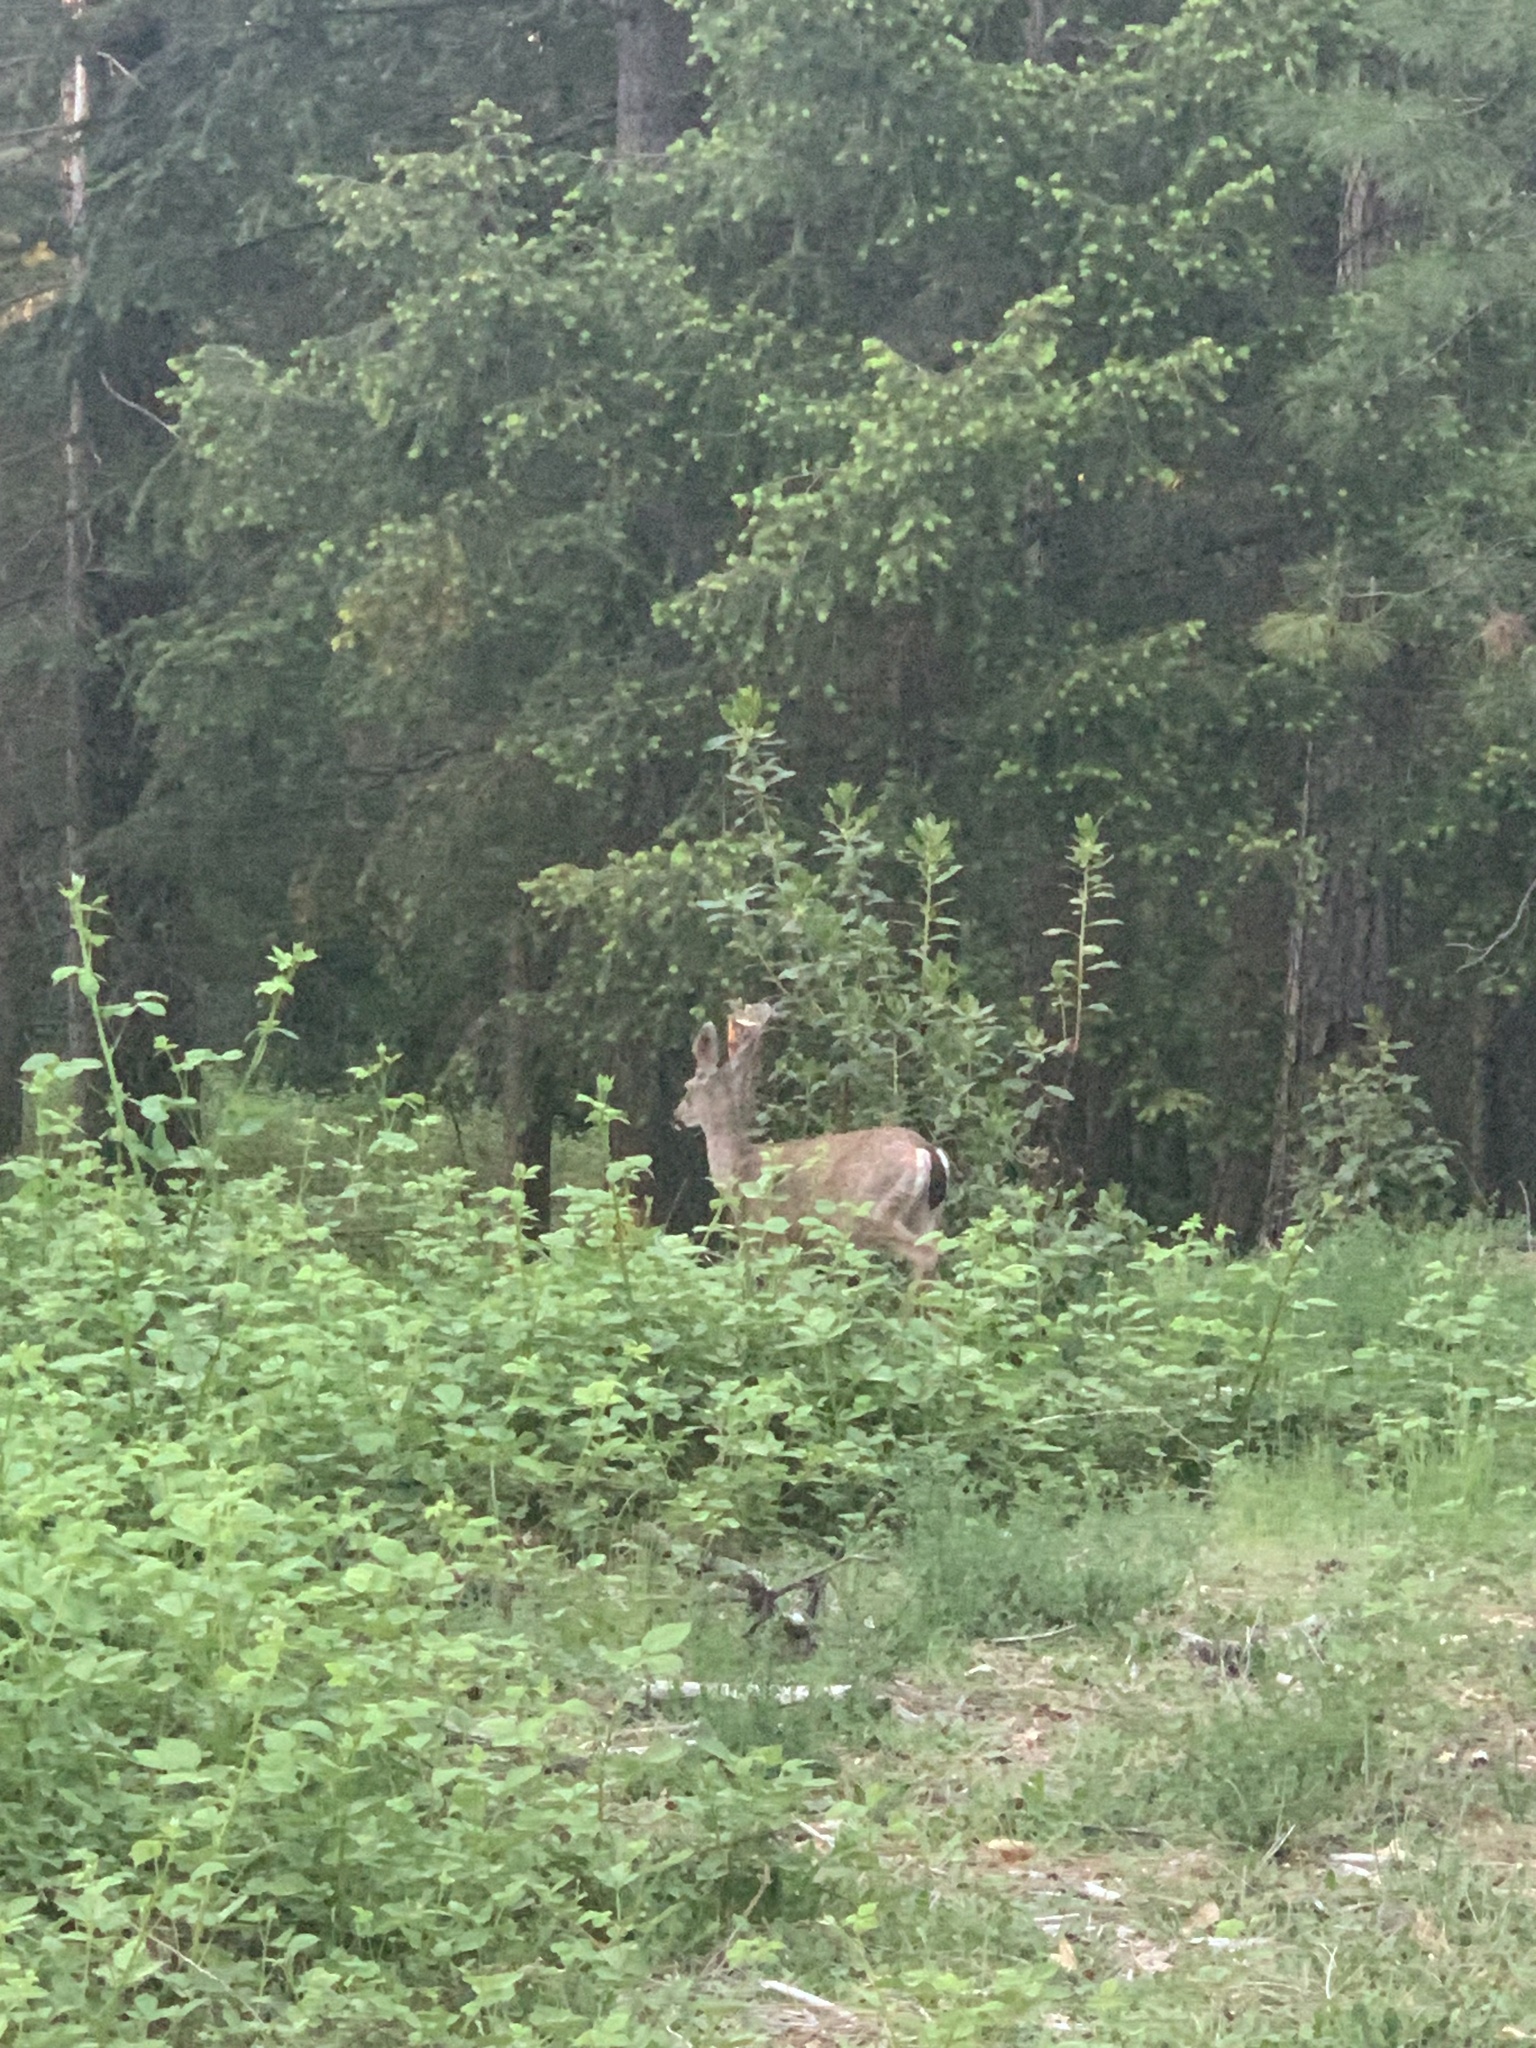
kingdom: Animalia
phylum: Chordata
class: Mammalia
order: Artiodactyla
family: Cervidae
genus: Odocoileus
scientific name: Odocoileus hemionus
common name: Mule deer
